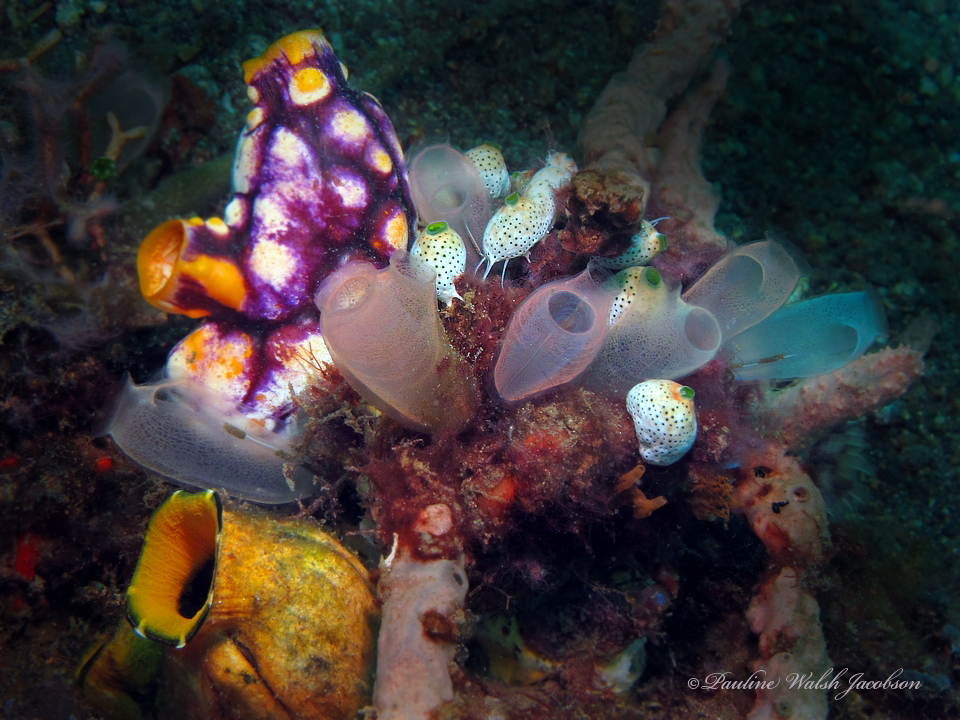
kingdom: Animalia
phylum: Chordata
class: Ascidiacea
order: Aplousobranchia
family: Didemnidae
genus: Didemnum
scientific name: Didemnum molle
